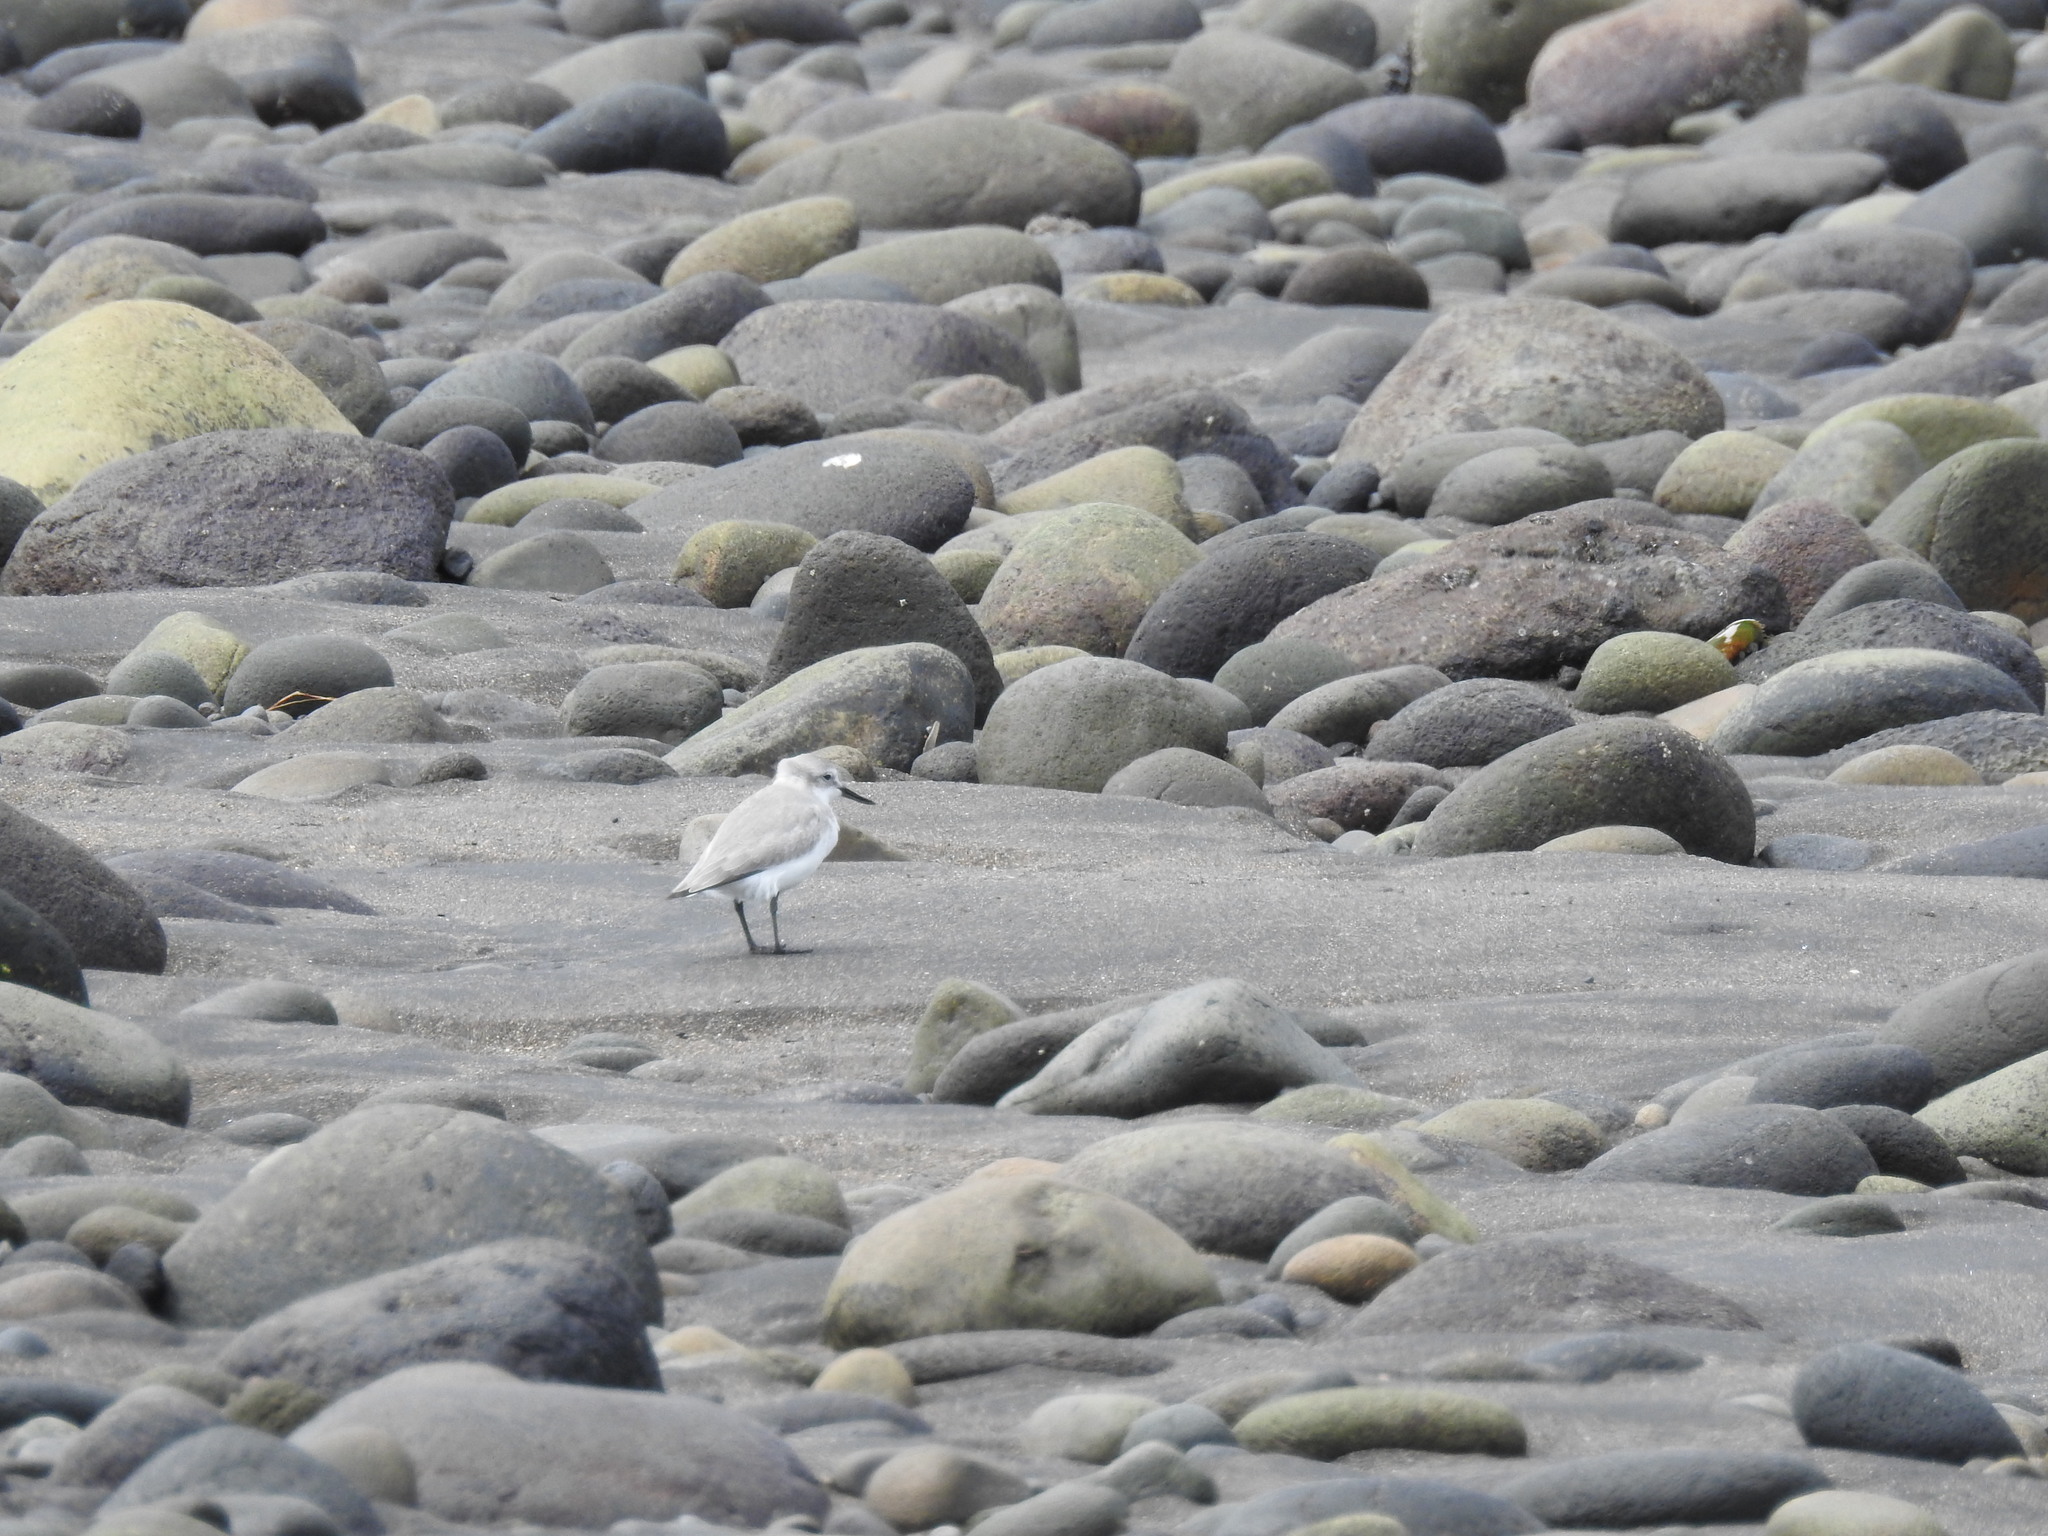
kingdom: Animalia
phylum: Chordata
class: Aves
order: Charadriiformes
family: Charadriidae
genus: Anarhynchus
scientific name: Anarhynchus frontalis
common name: Wrybill
